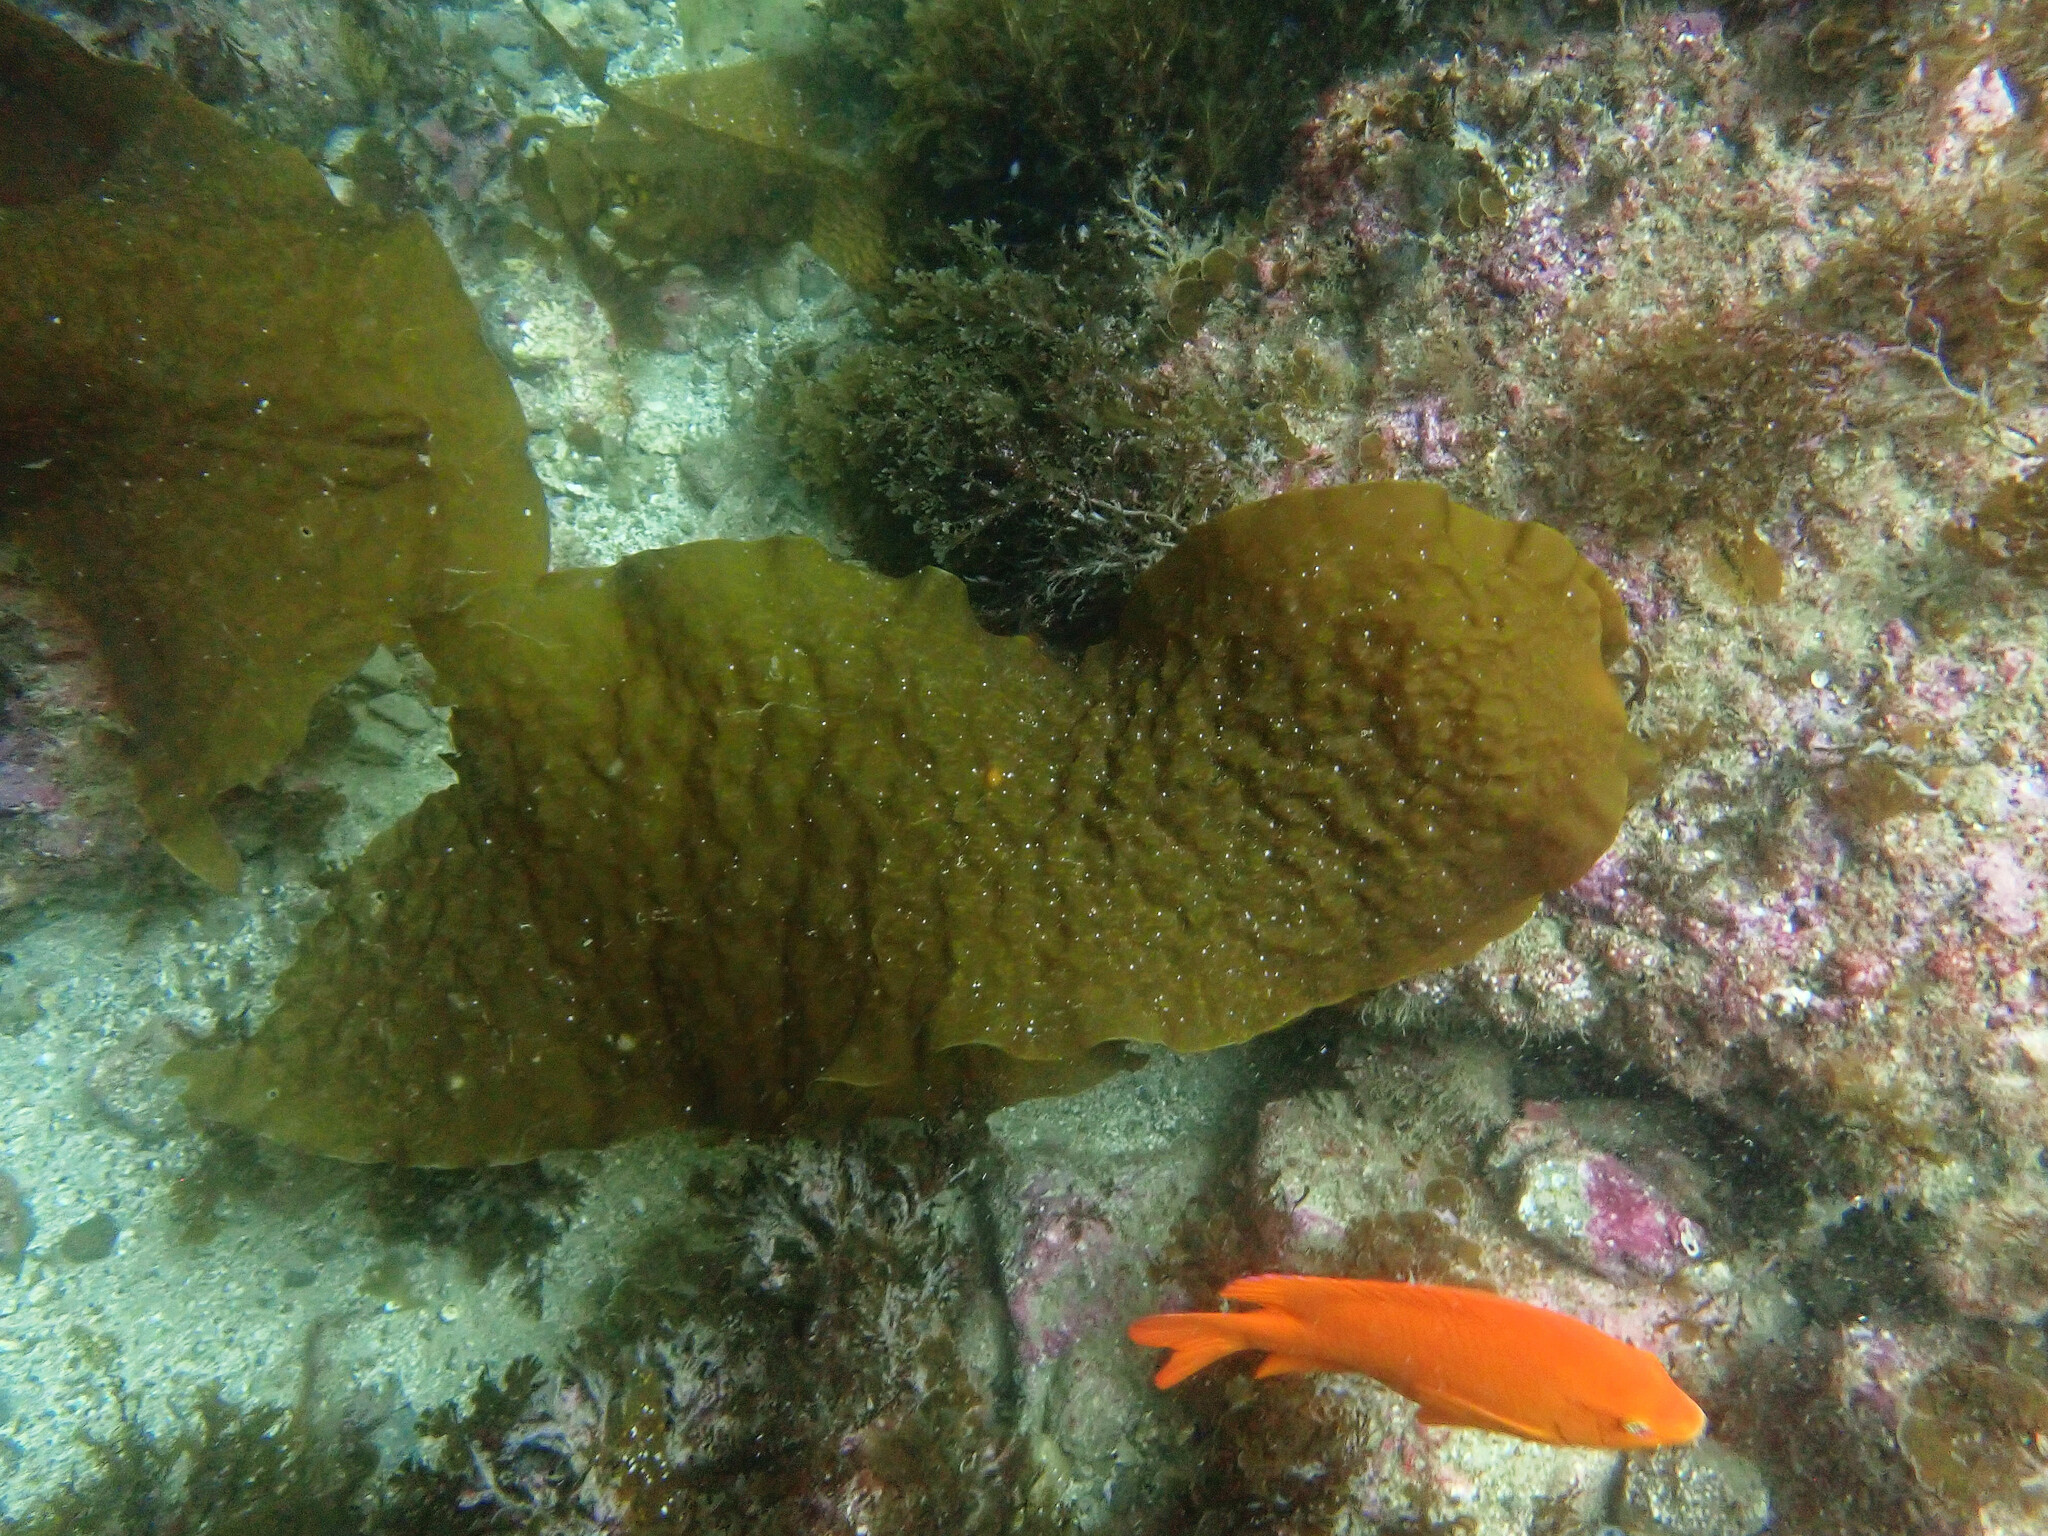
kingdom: Chromista
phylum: Ochrophyta
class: Phaeophyceae
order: Laminariales
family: Laminariaceae
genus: Laminaria
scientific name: Laminaria farlowii
